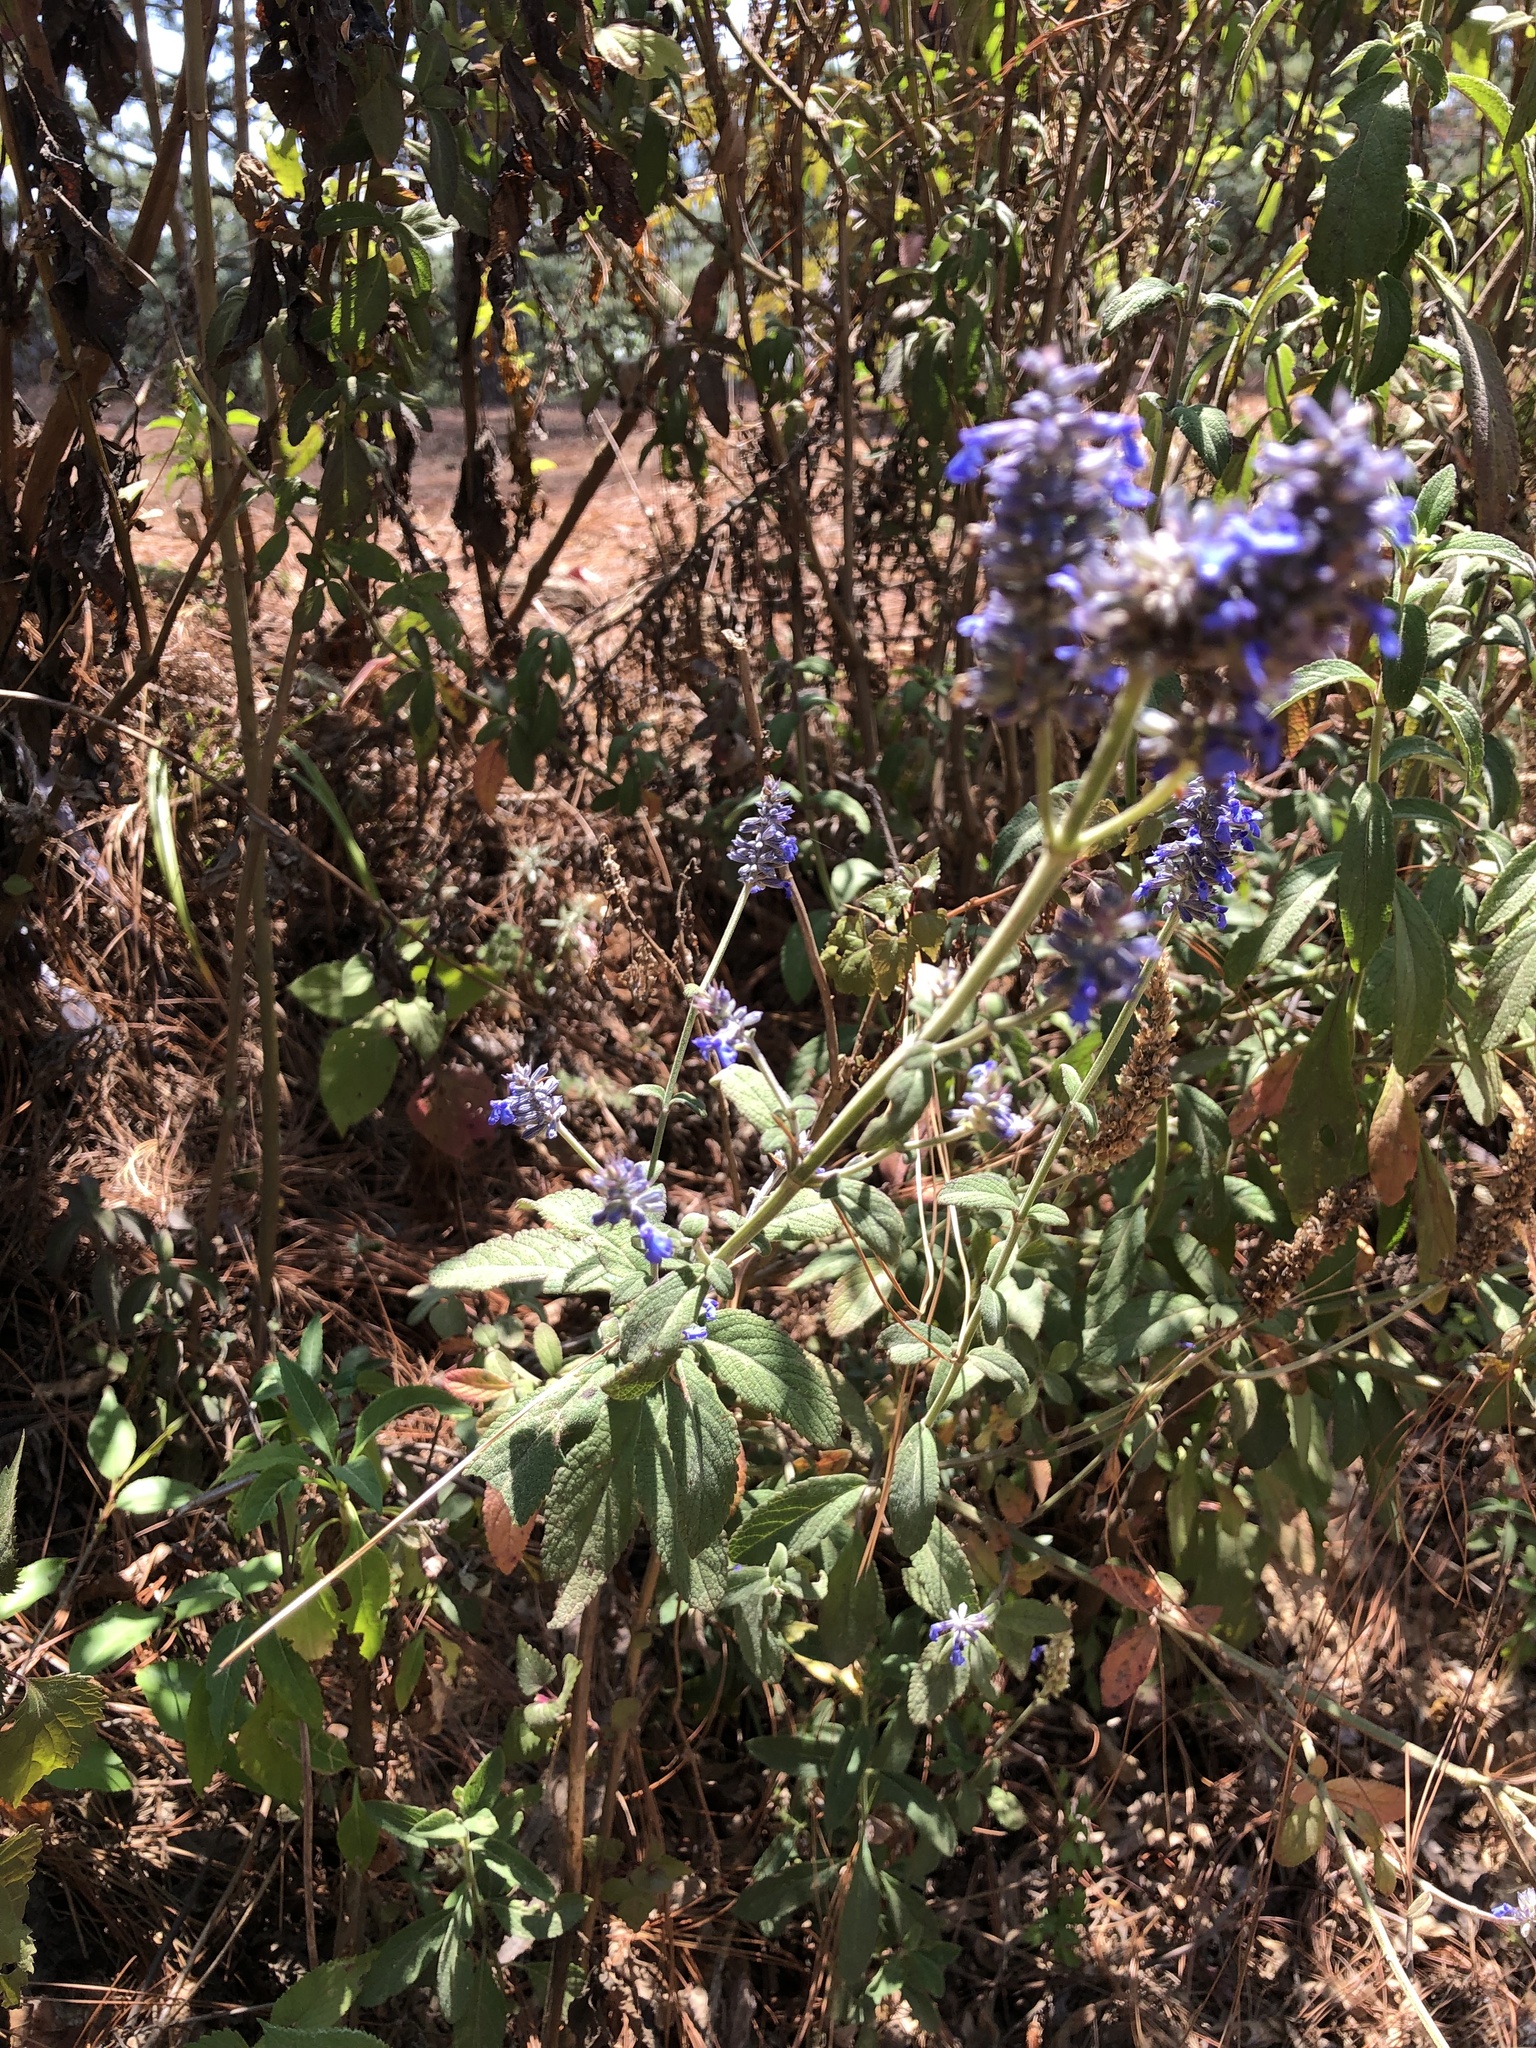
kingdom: Plantae
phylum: Tracheophyta
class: Magnoliopsida
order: Lamiales
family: Lamiaceae
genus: Salvia
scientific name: Salvia lavanduloides
